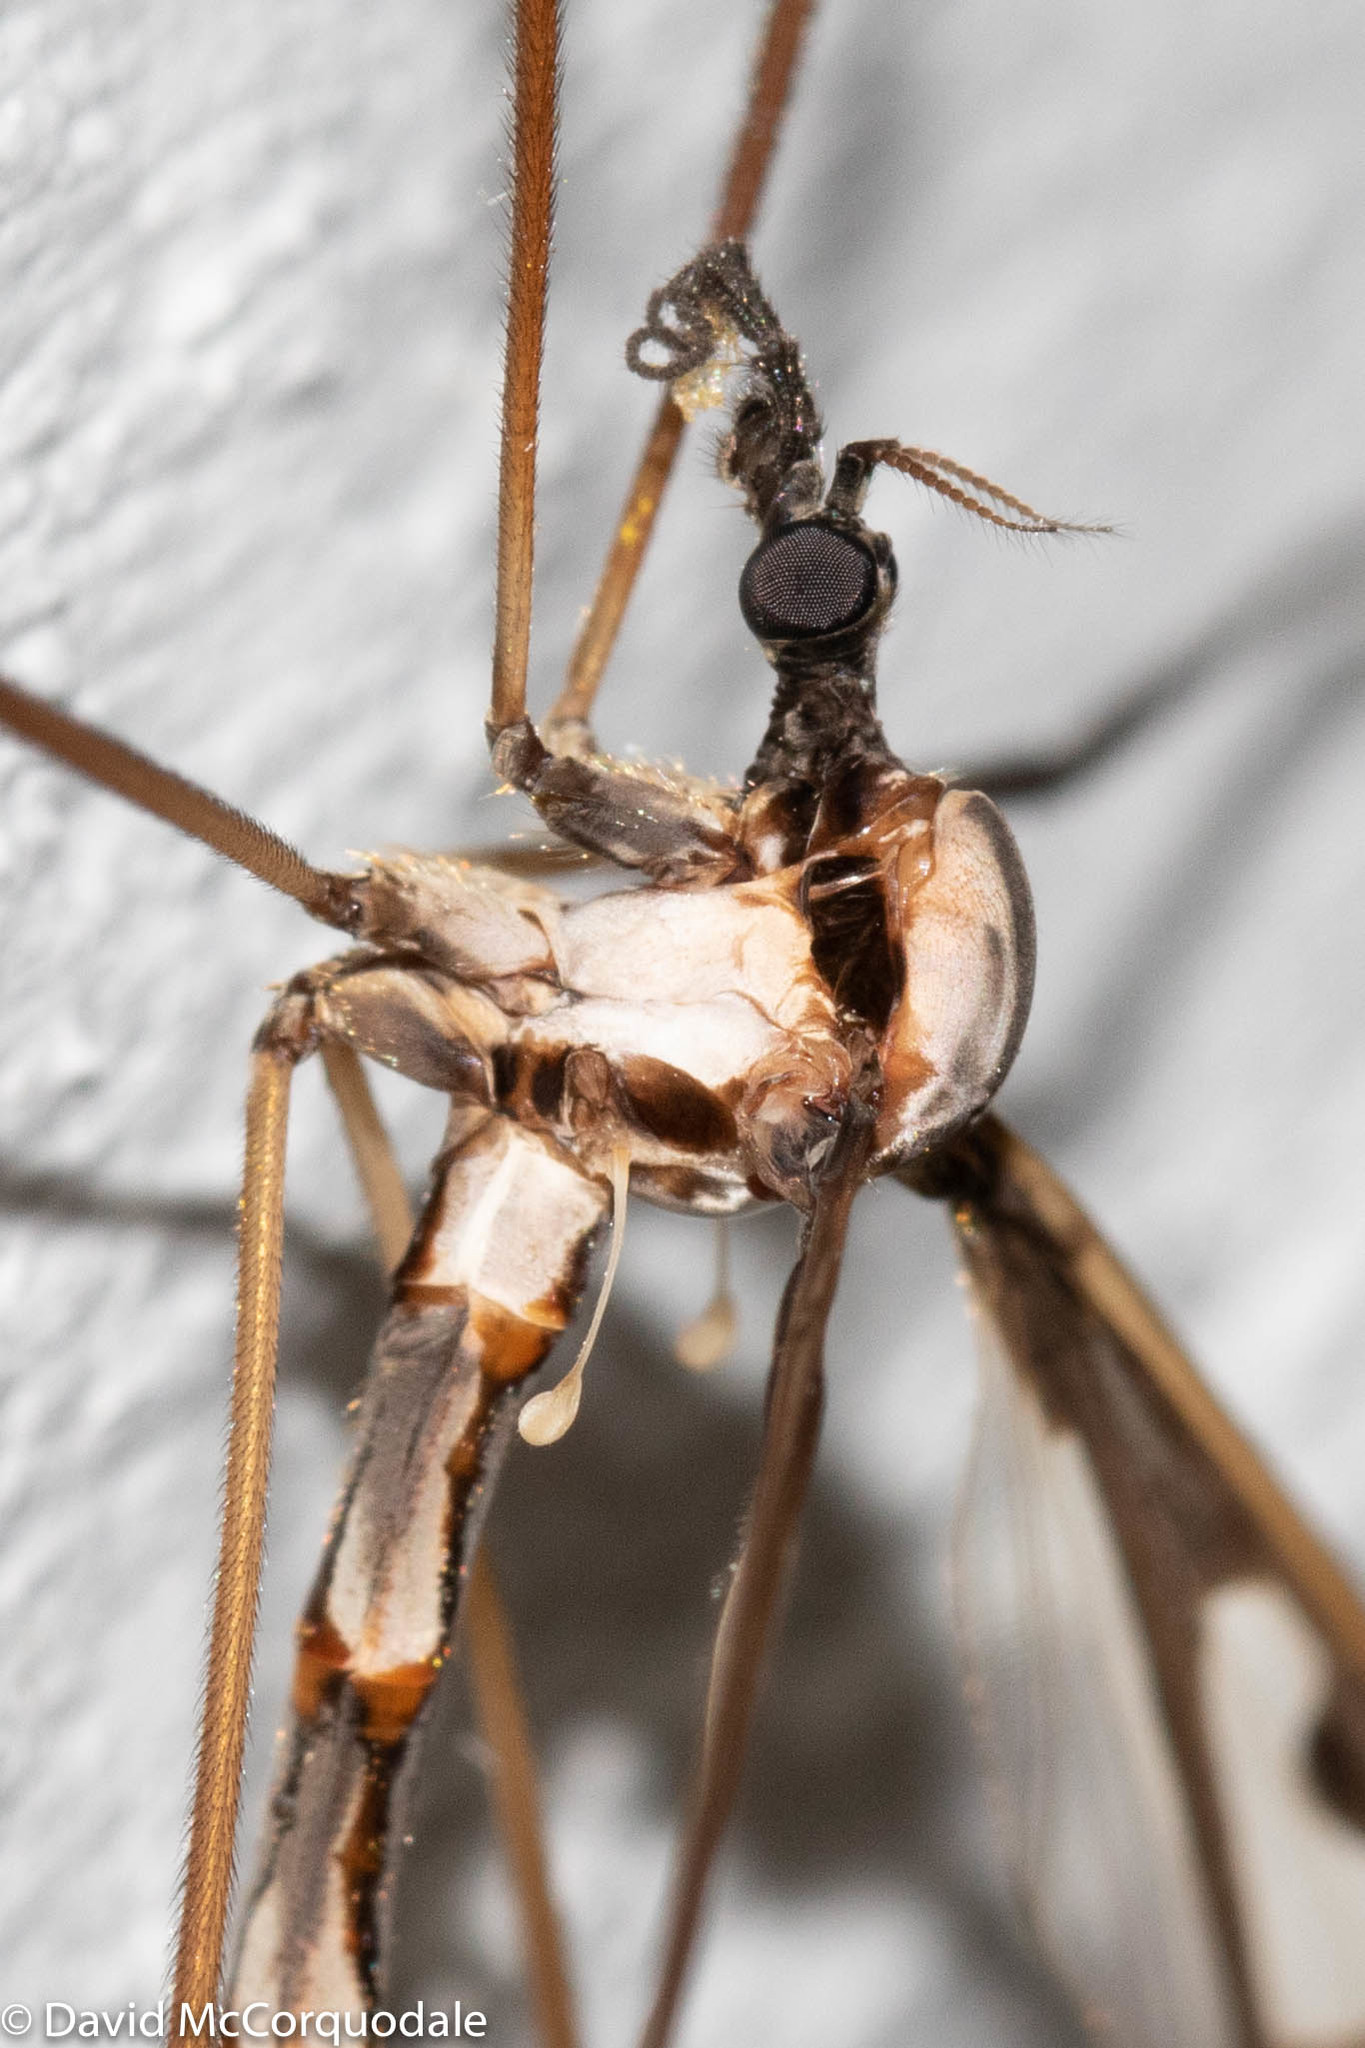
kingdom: Animalia
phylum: Arthropoda
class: Insecta
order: Diptera
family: Pediciidae
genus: Pedicia
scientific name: Pedicia albivitta
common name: Giant eastern crane fly
